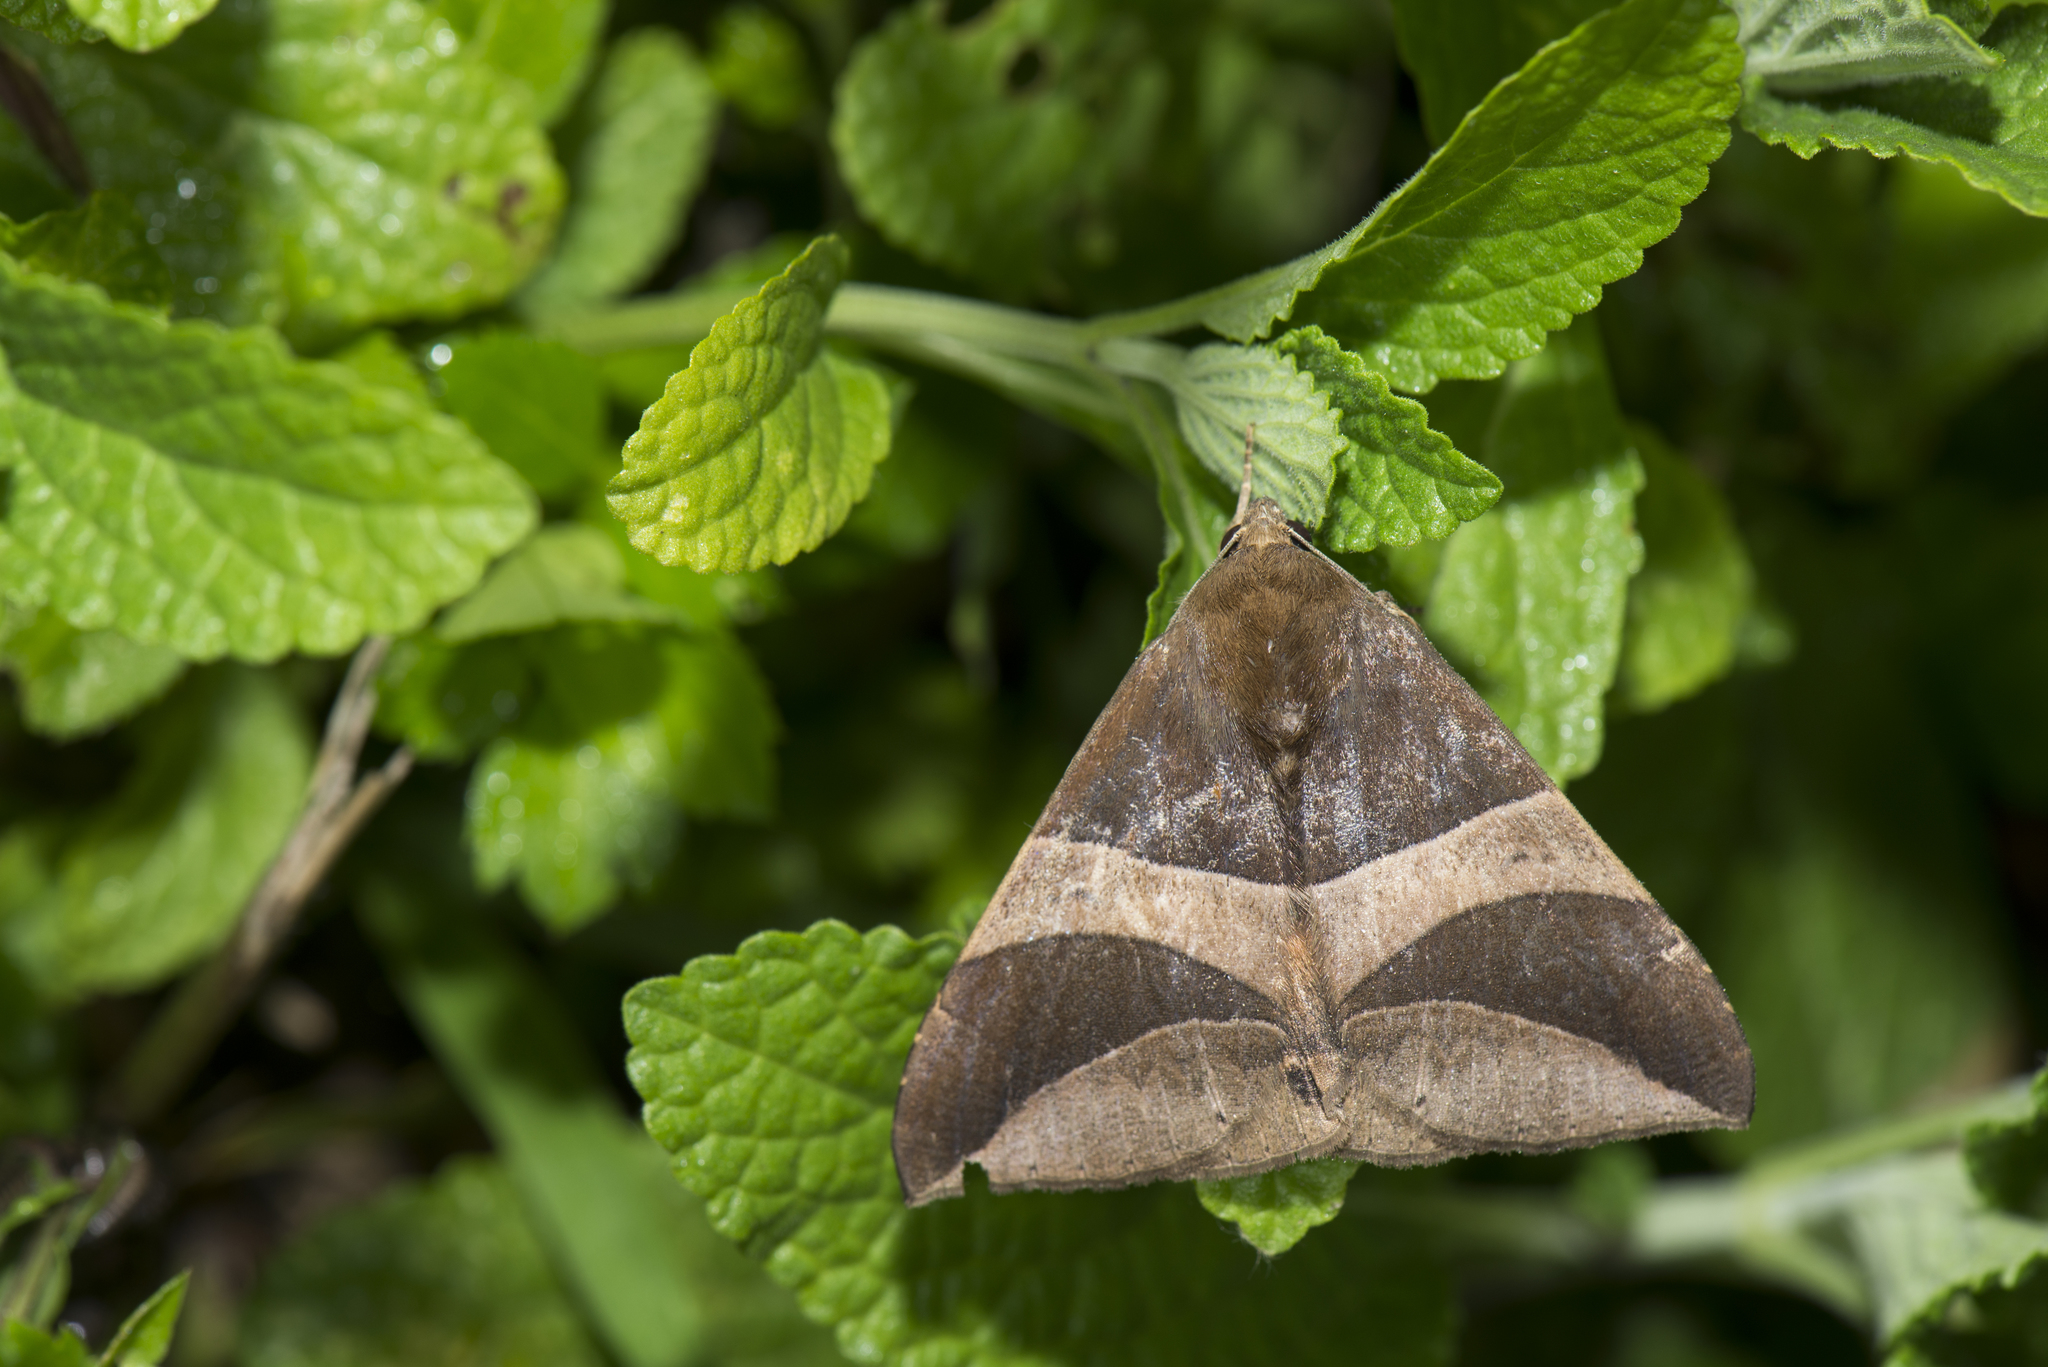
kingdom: Animalia
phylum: Arthropoda
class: Insecta
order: Lepidoptera
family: Erebidae
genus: Bastilla
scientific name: Bastilla fulvotaenia
